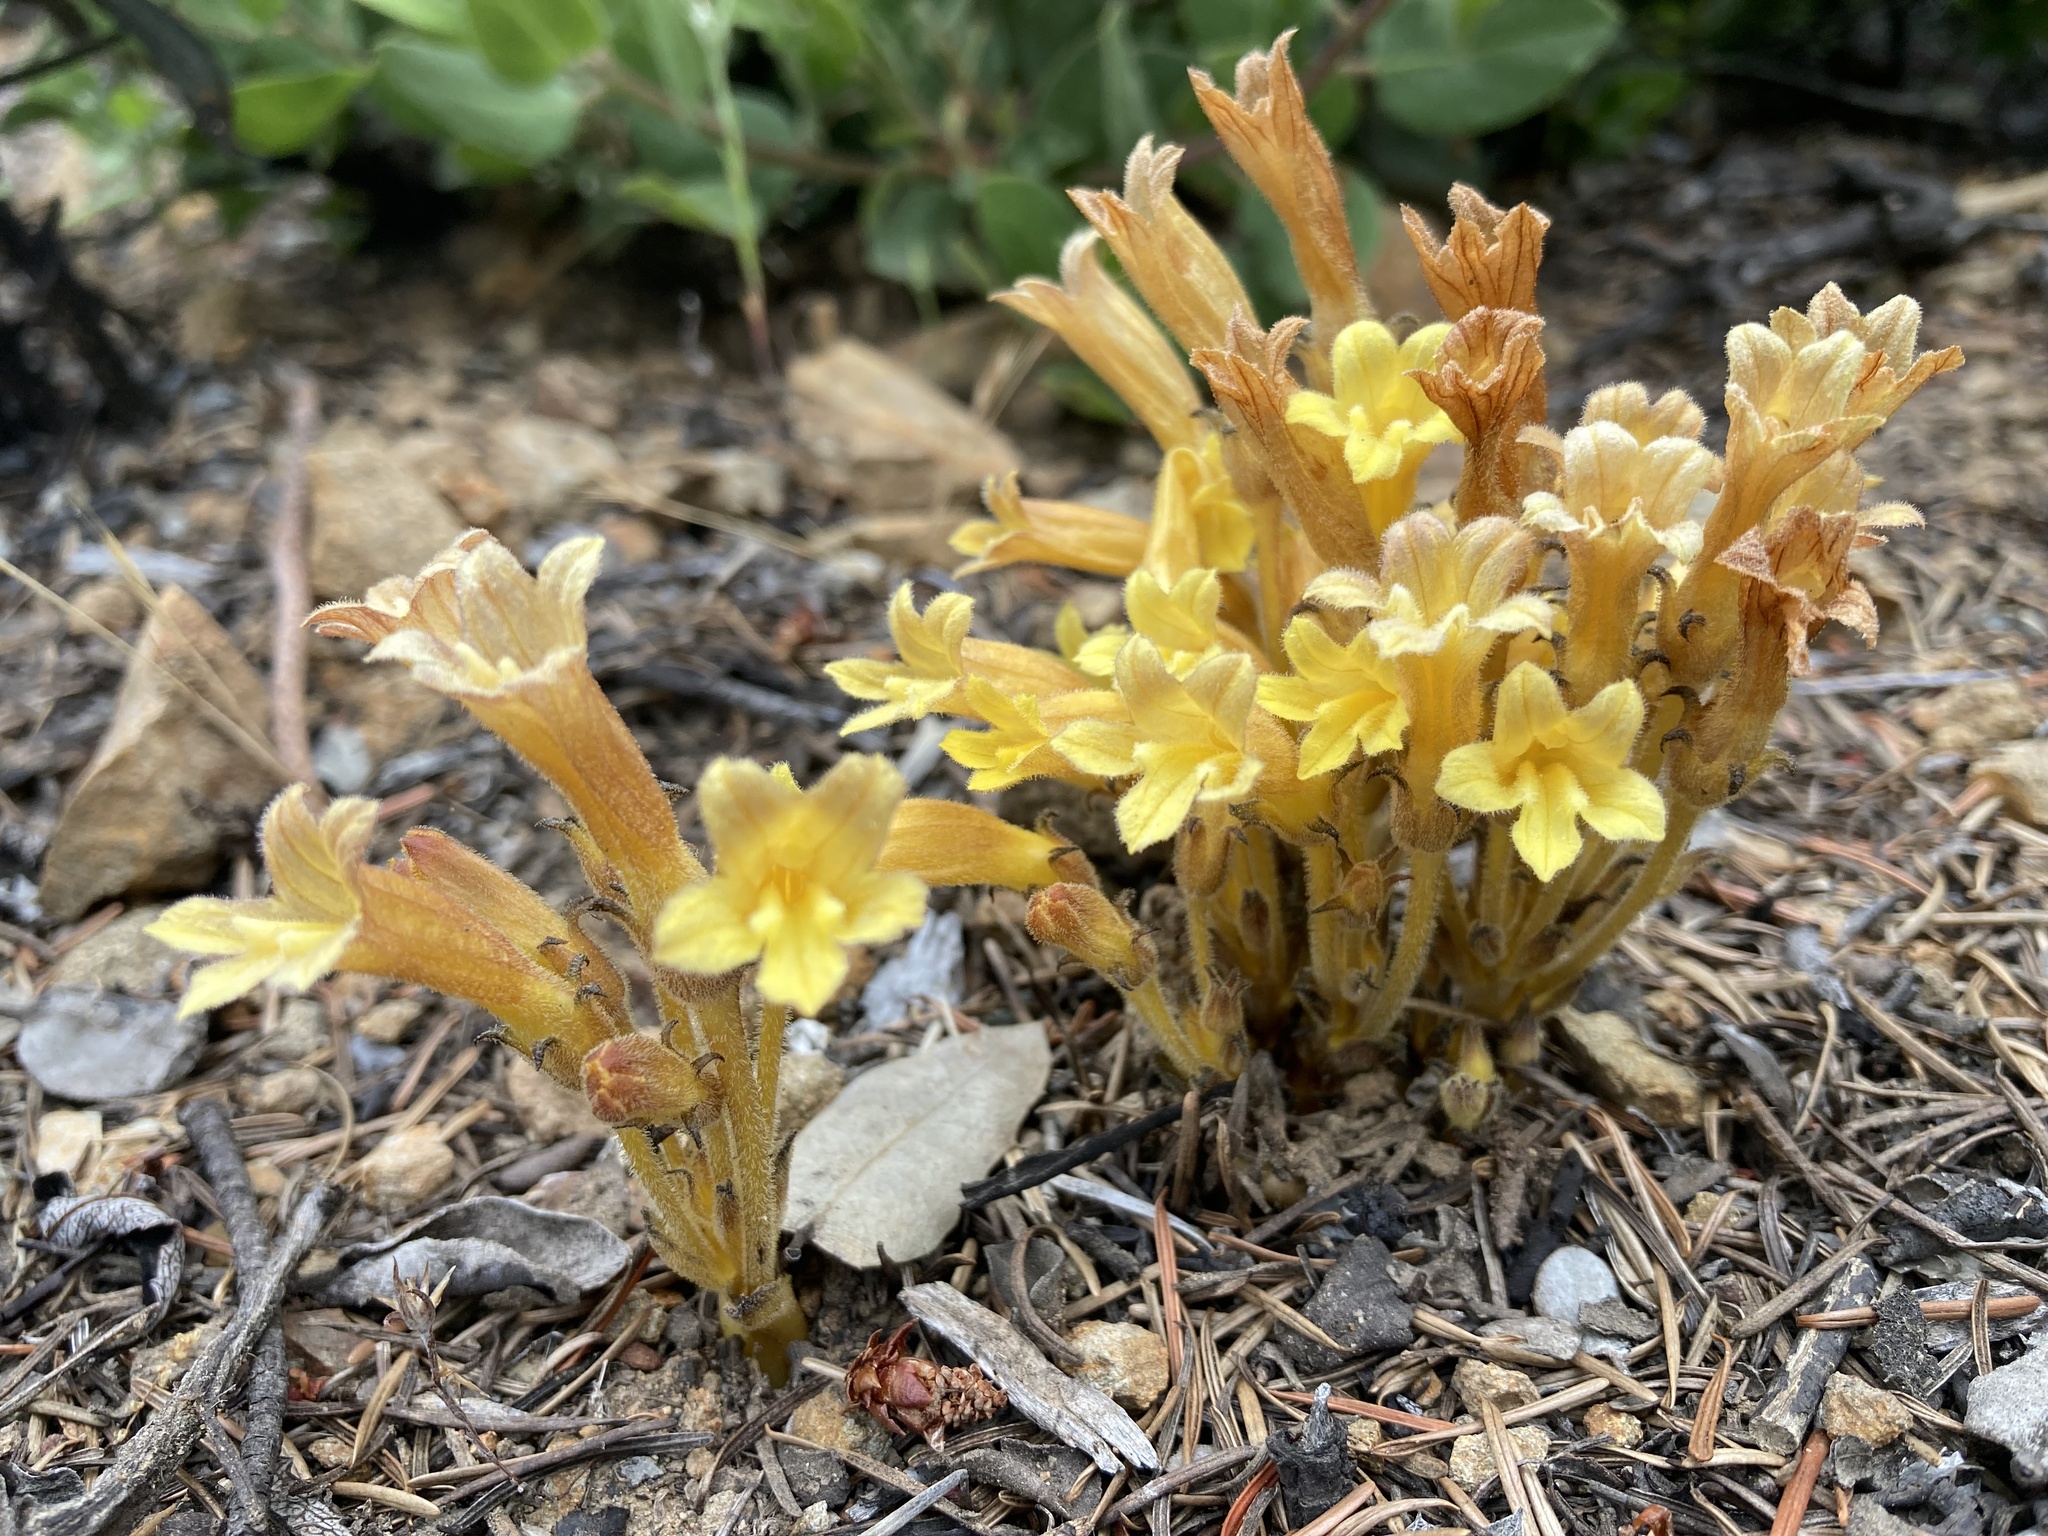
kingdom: Plantae
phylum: Tracheophyta
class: Magnoliopsida
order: Lamiales
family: Orobanchaceae
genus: Aphyllon
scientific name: Aphyllon franciscanum
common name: San francisco broomrape
